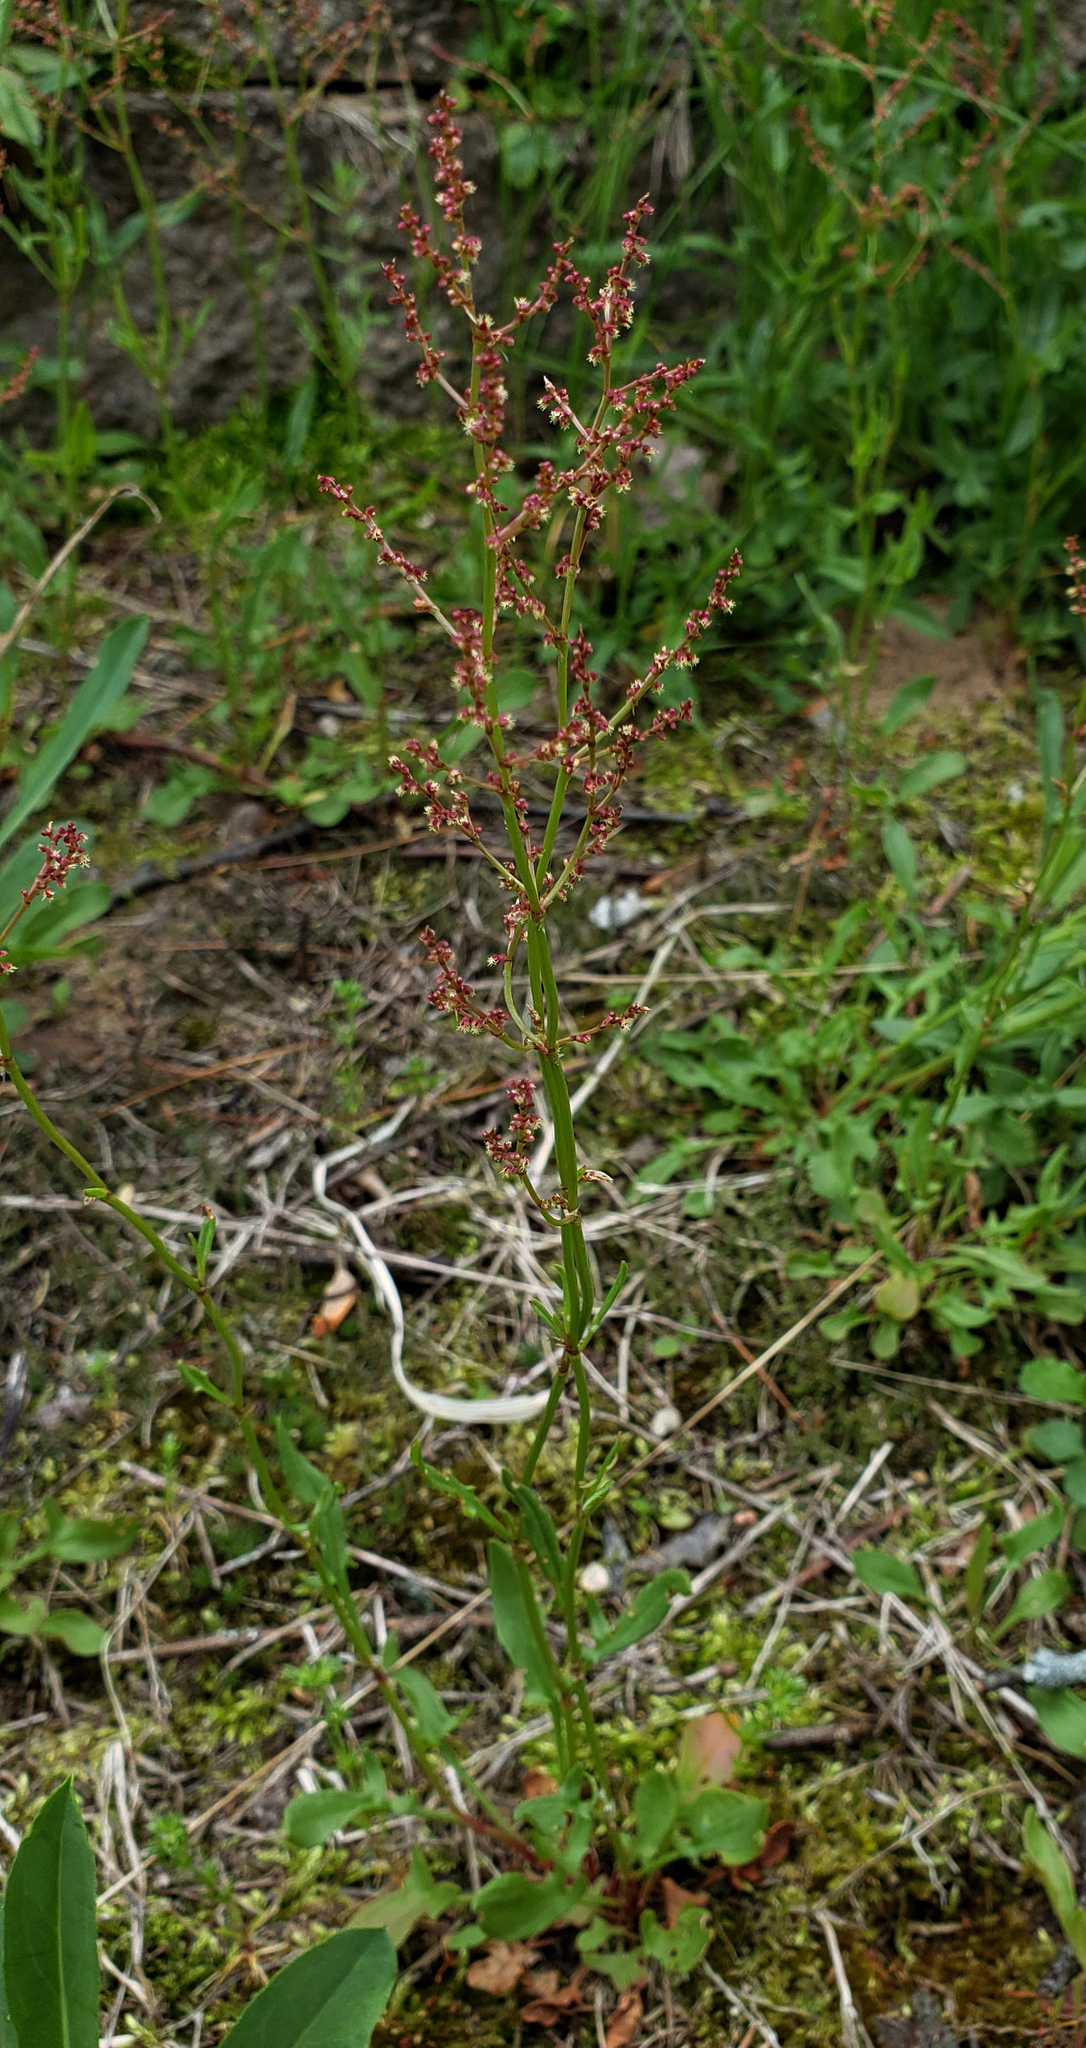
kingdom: Plantae
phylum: Tracheophyta
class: Magnoliopsida
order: Caryophyllales
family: Polygonaceae
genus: Rumex
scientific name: Rumex acetosella
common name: Common sheep sorrel
